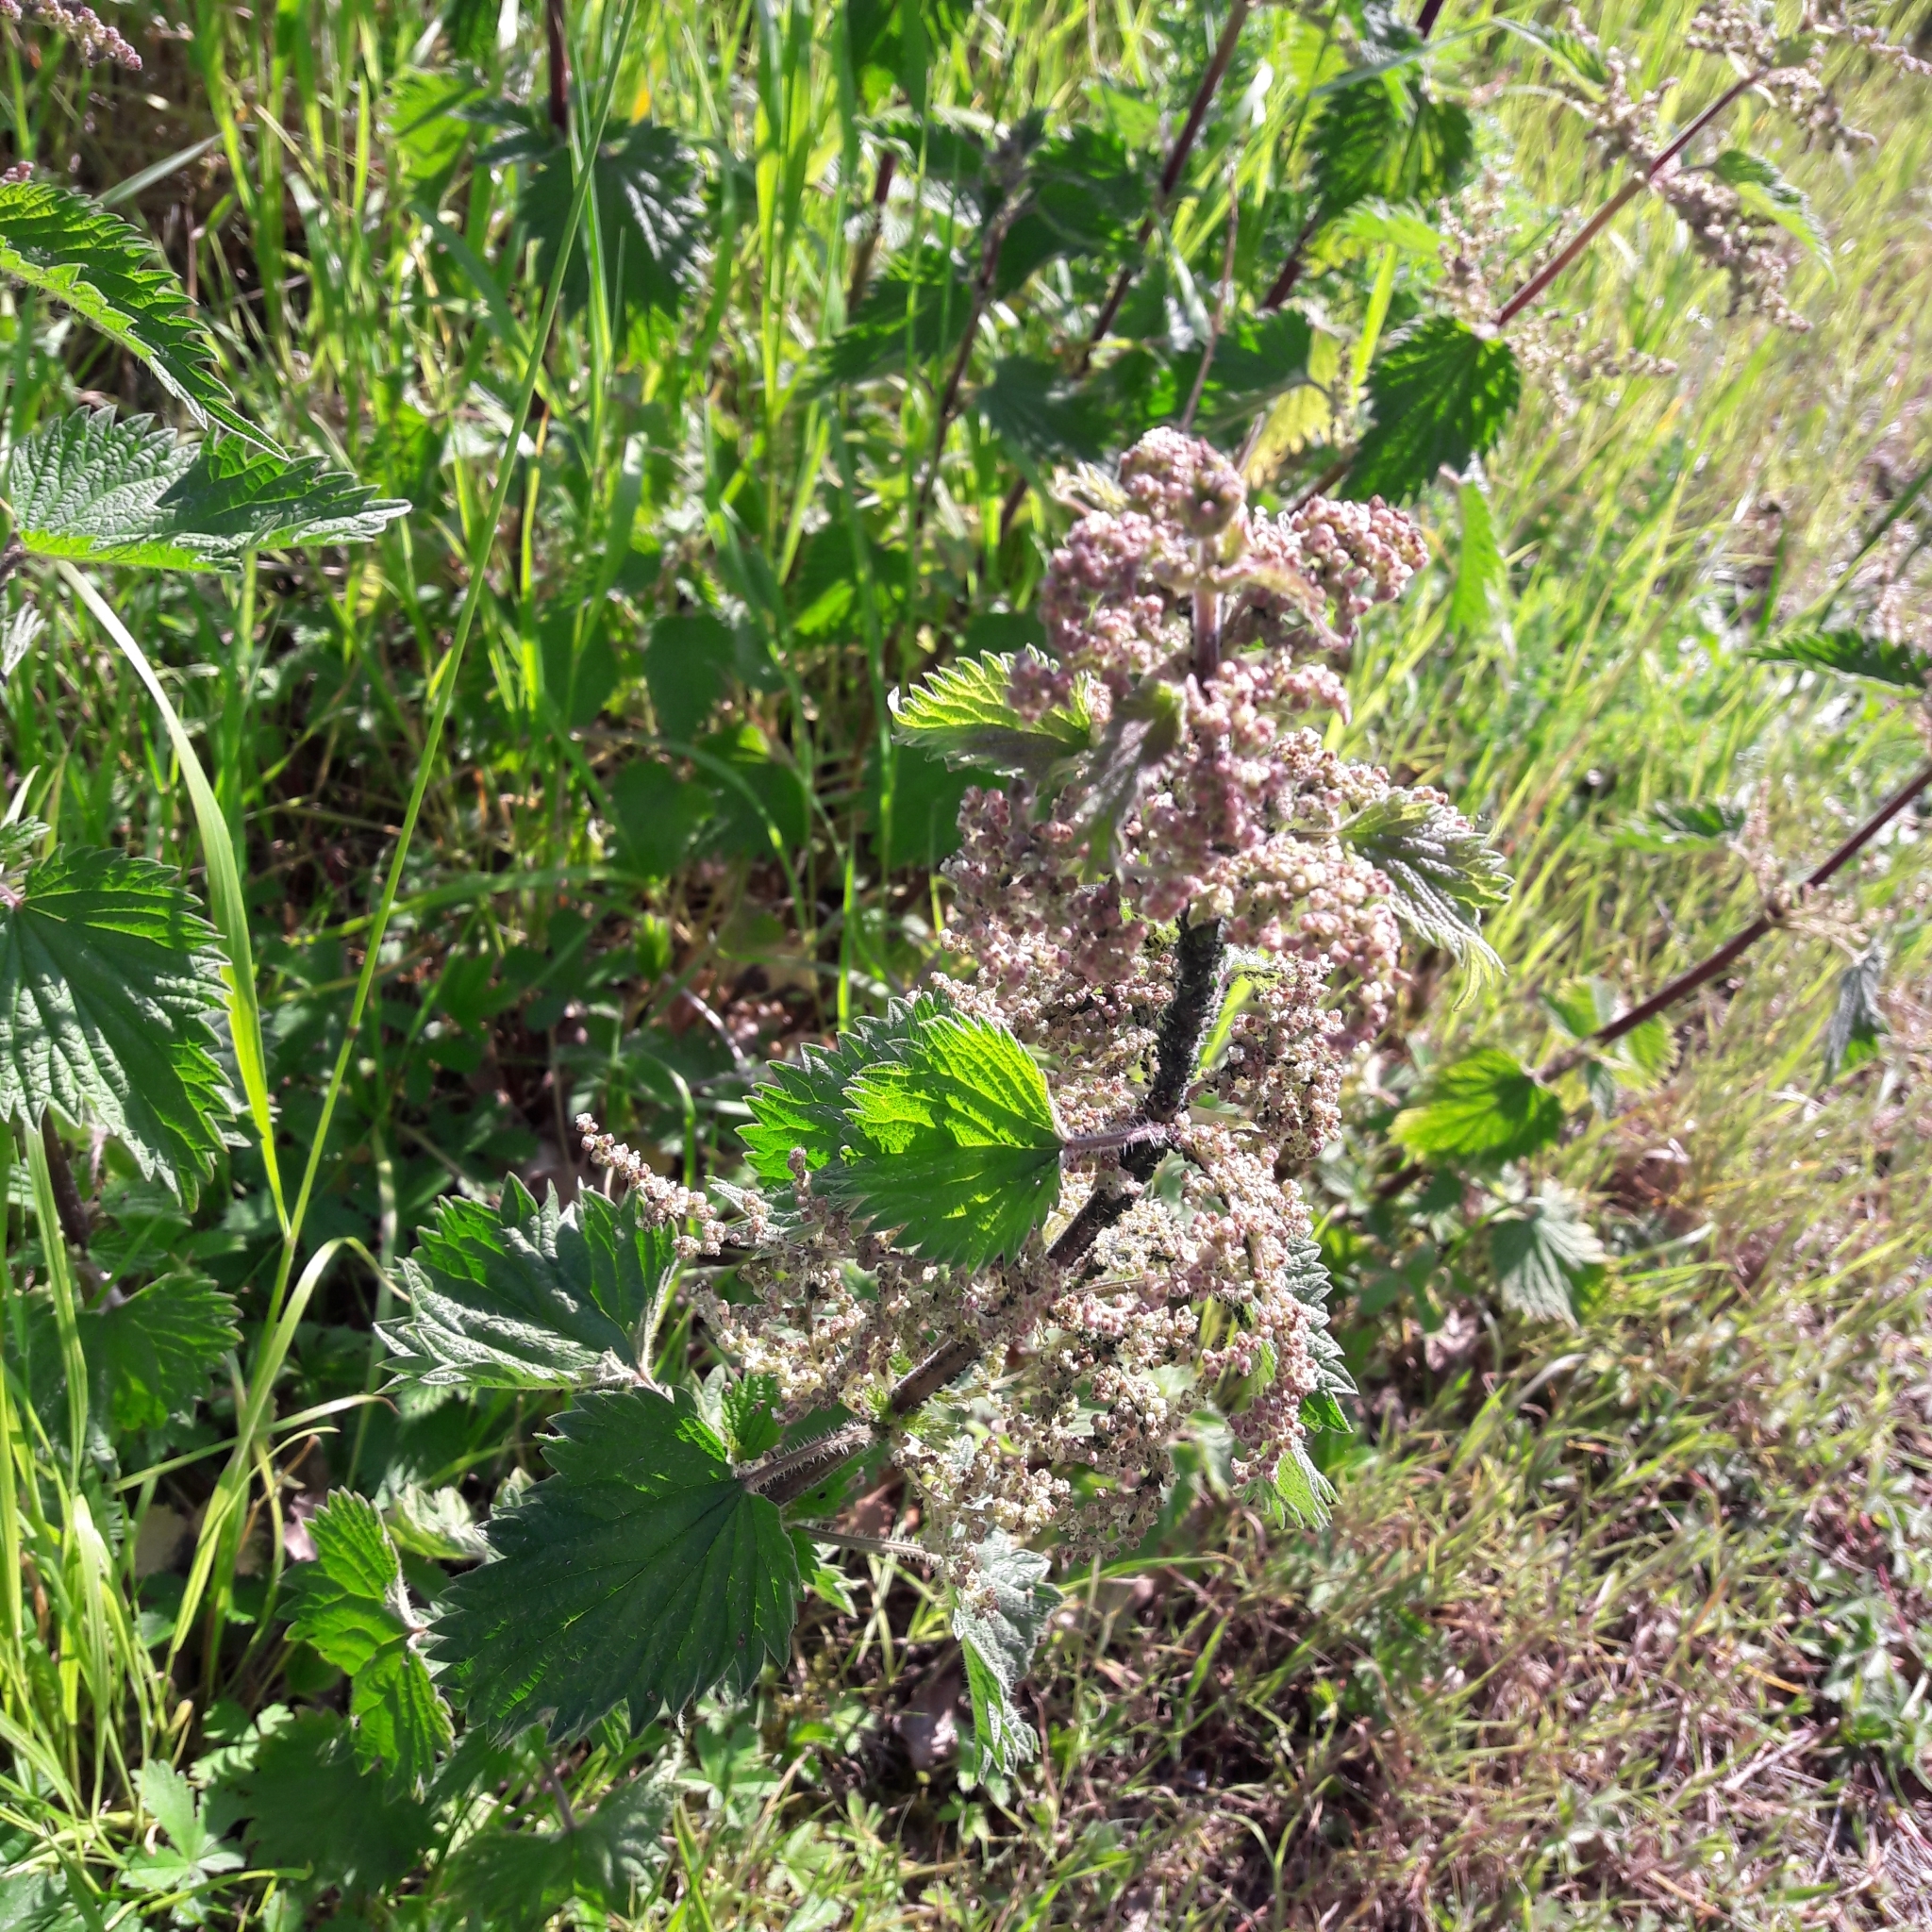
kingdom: Plantae
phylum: Tracheophyta
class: Magnoliopsida
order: Rosales
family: Urticaceae
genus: Urtica
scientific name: Urtica dioica
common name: Common nettle
